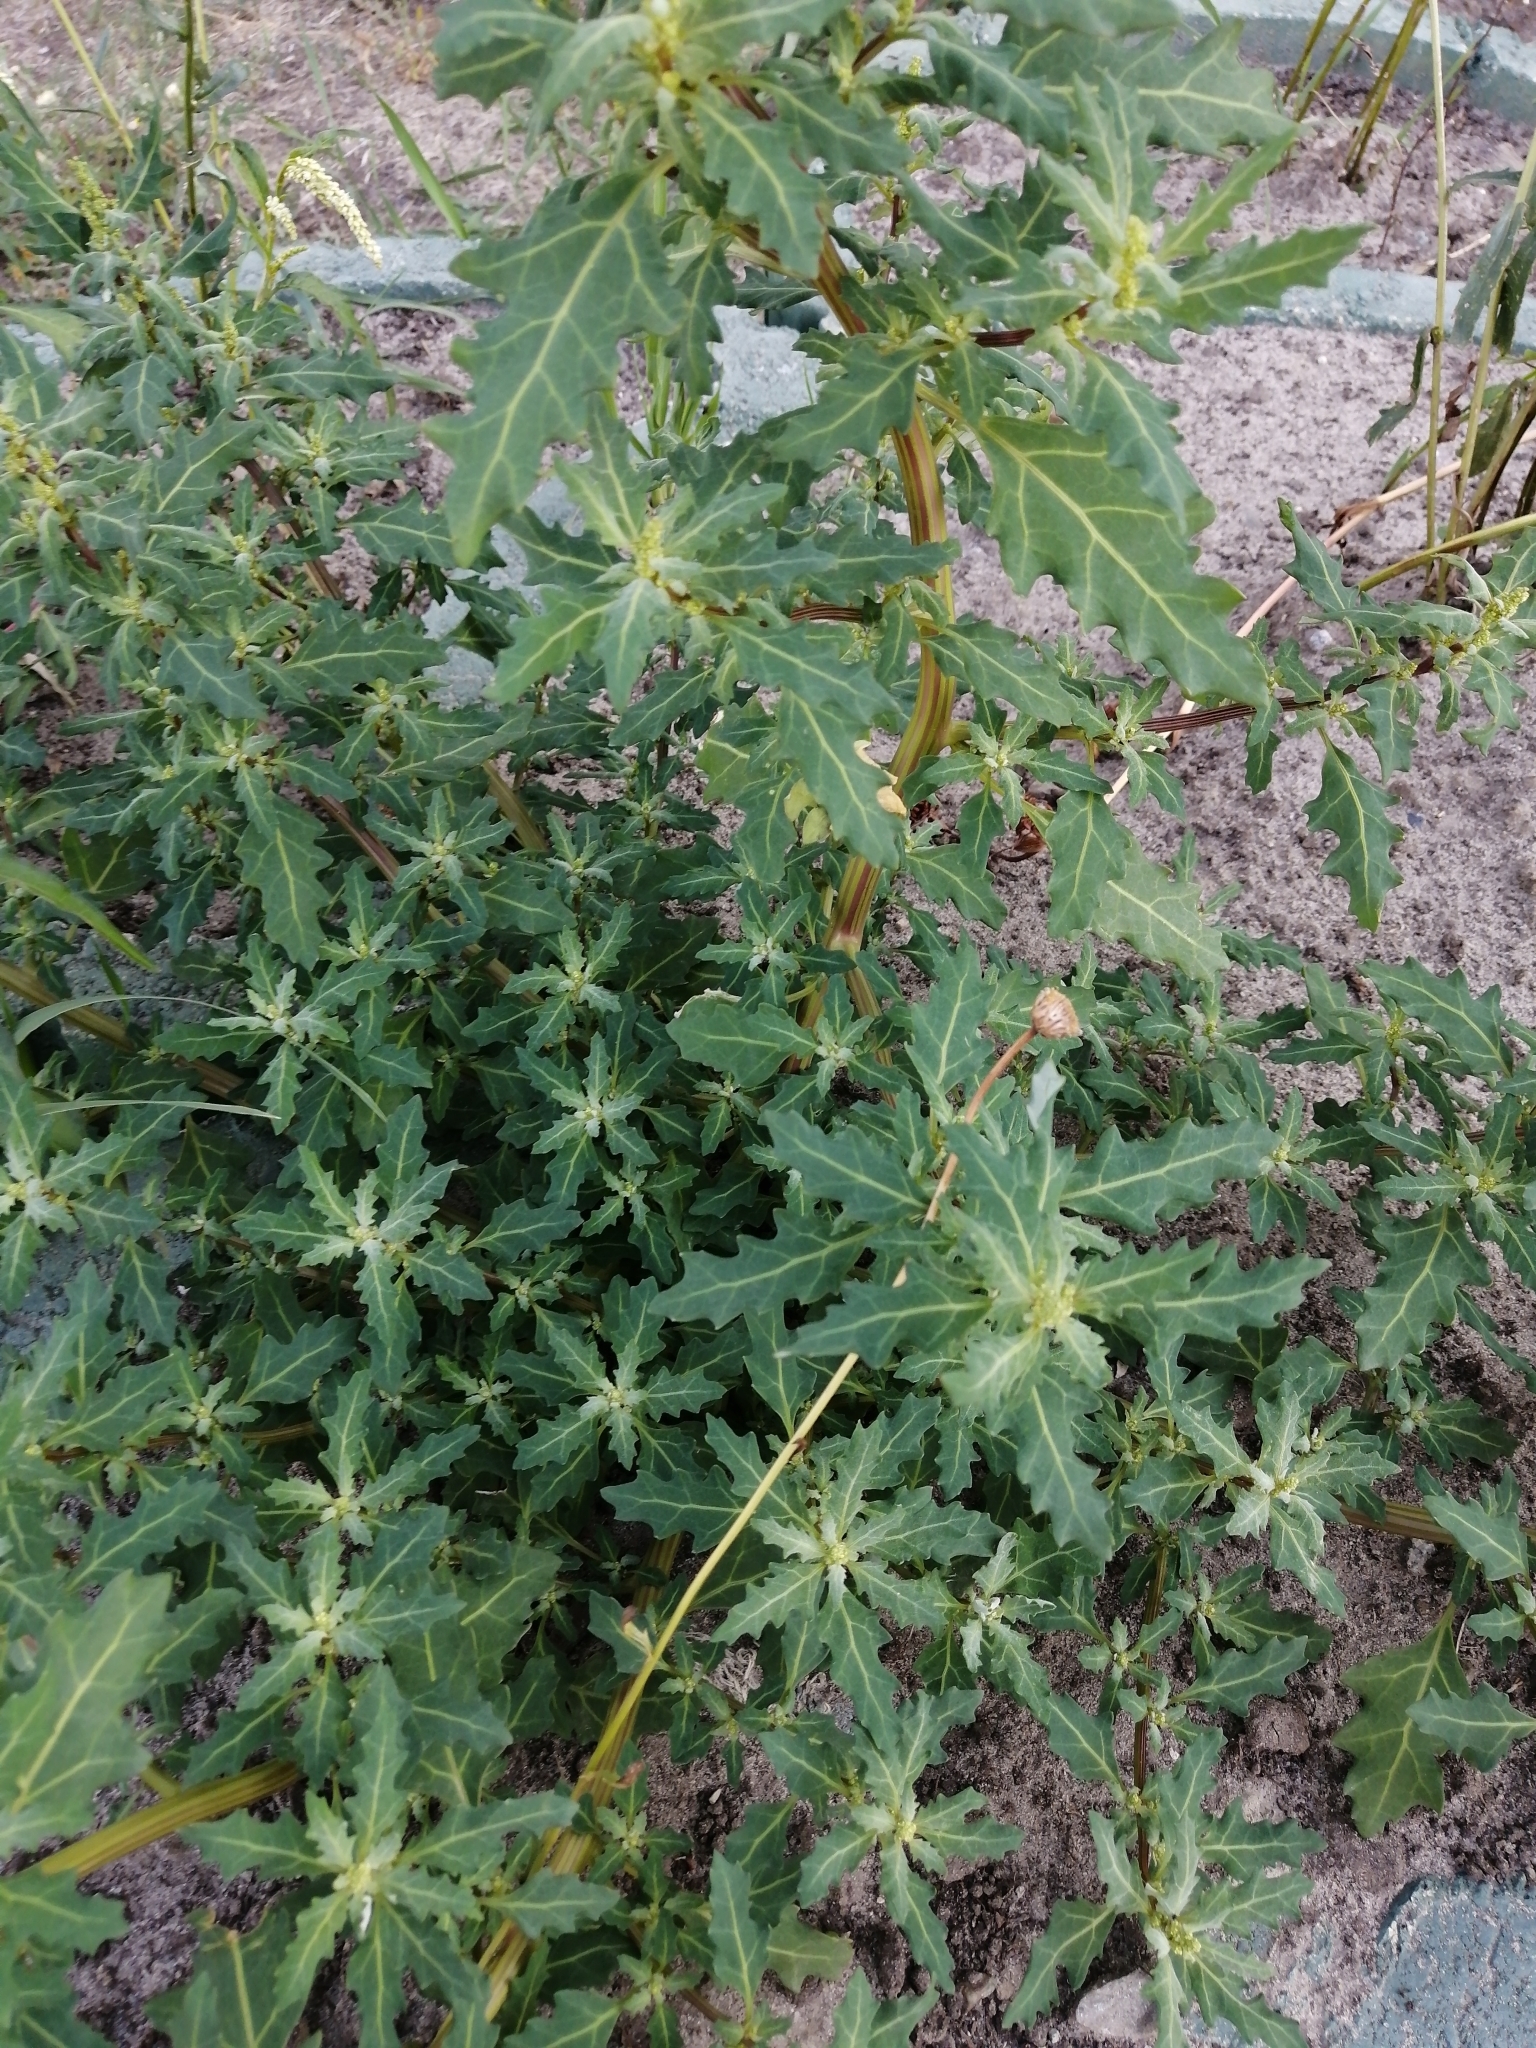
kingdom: Plantae
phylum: Tracheophyta
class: Magnoliopsida
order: Caryophyllales
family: Amaranthaceae
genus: Oxybasis
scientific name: Oxybasis glauca
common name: Glaucous goosefoot
